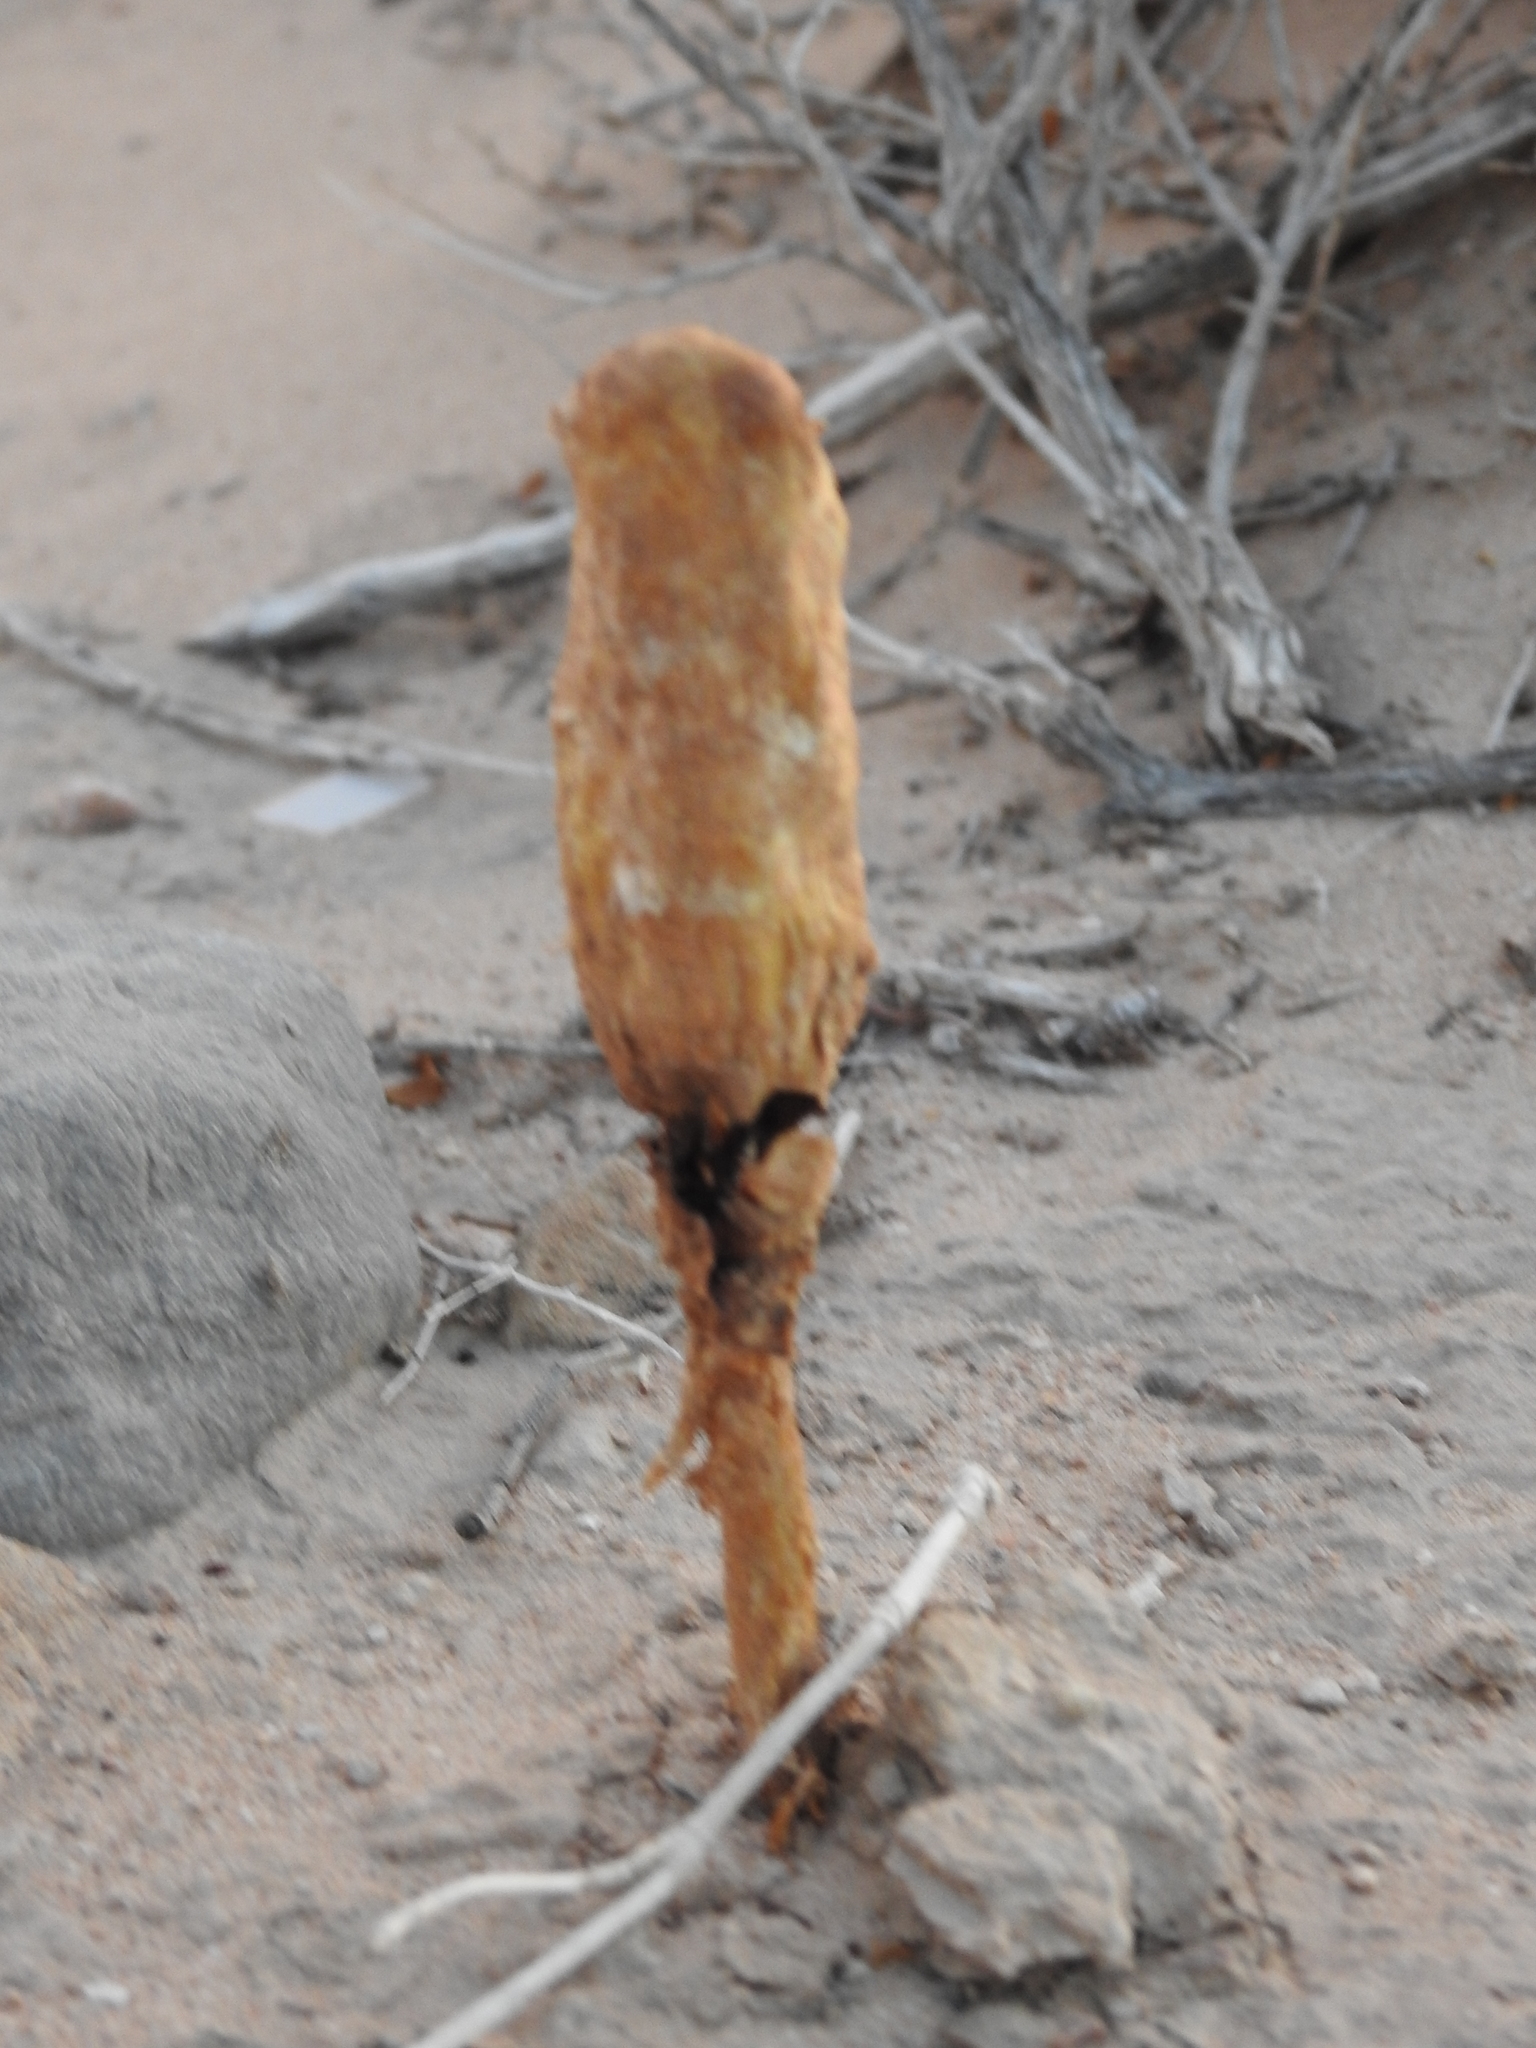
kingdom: Fungi
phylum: Basidiomycota
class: Agaricomycetes
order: Agaricales
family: Agaricaceae
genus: Podaxis
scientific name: Podaxis pistillaris
